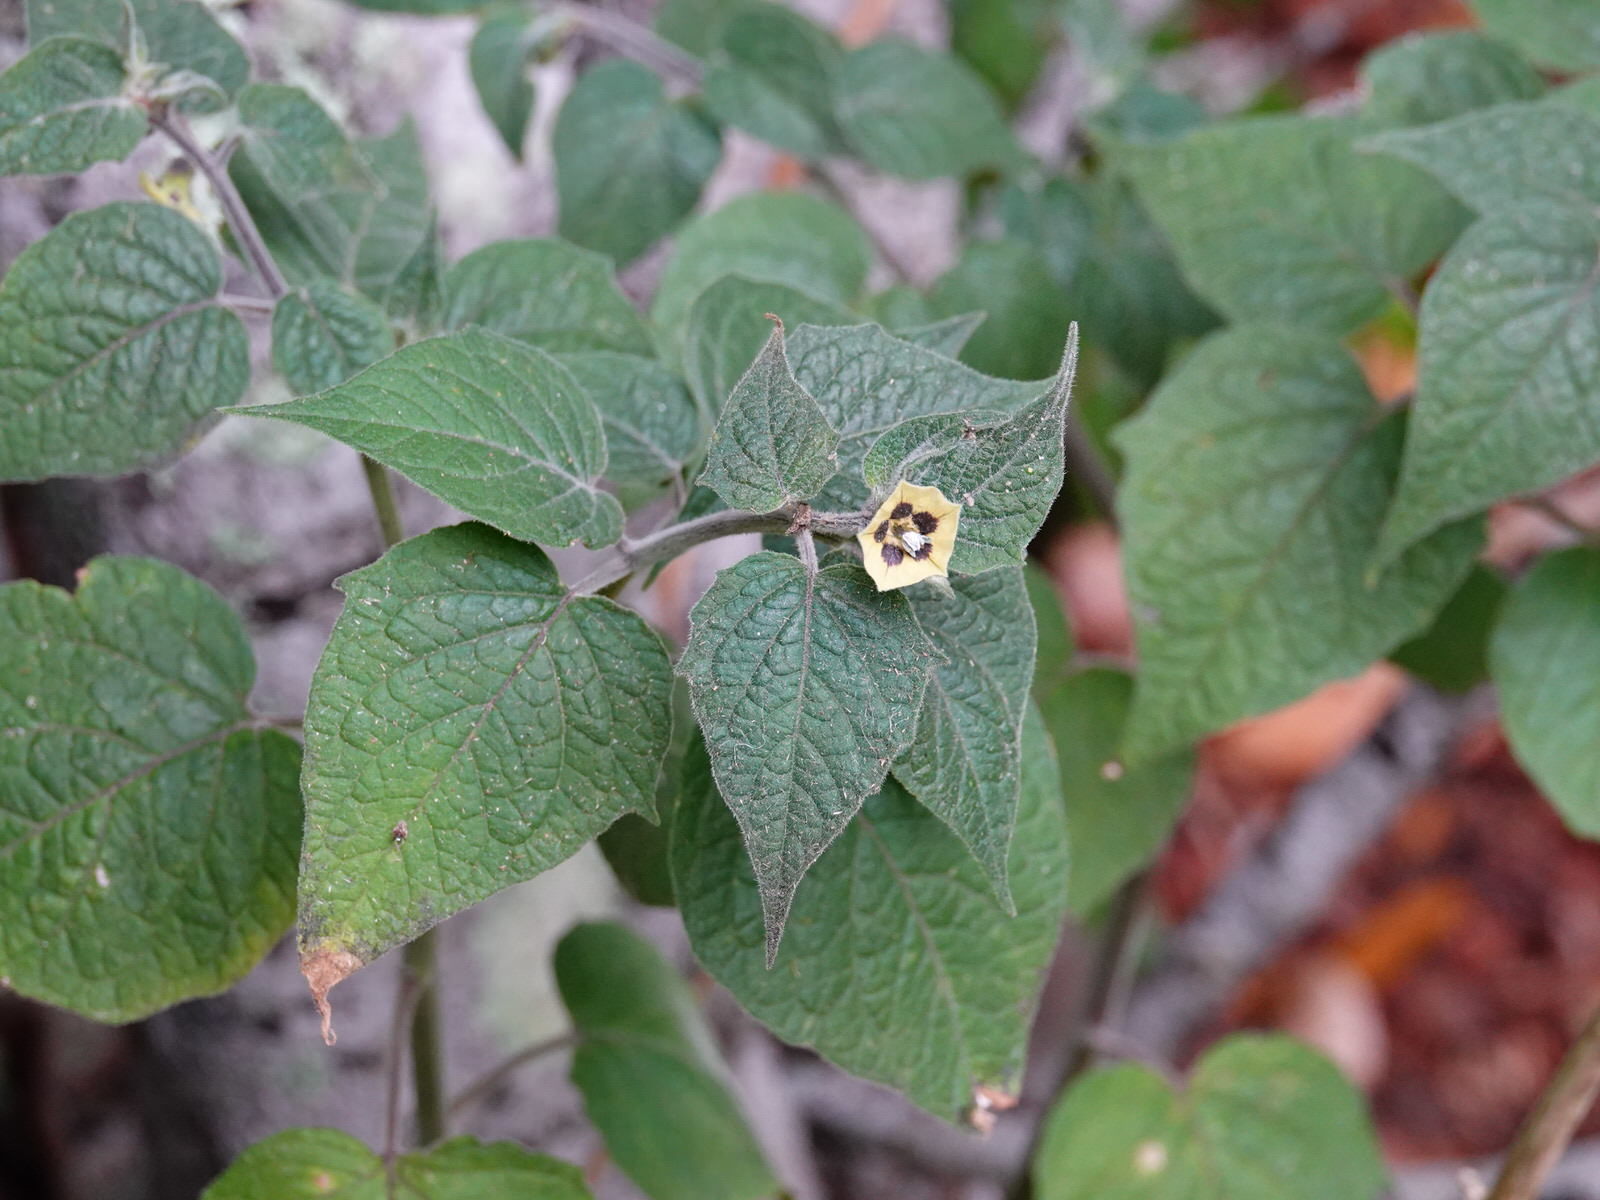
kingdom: Plantae
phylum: Tracheophyta
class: Magnoliopsida
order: Solanales
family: Solanaceae
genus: Physalis
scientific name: Physalis peruviana
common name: Cape-gooseberry
